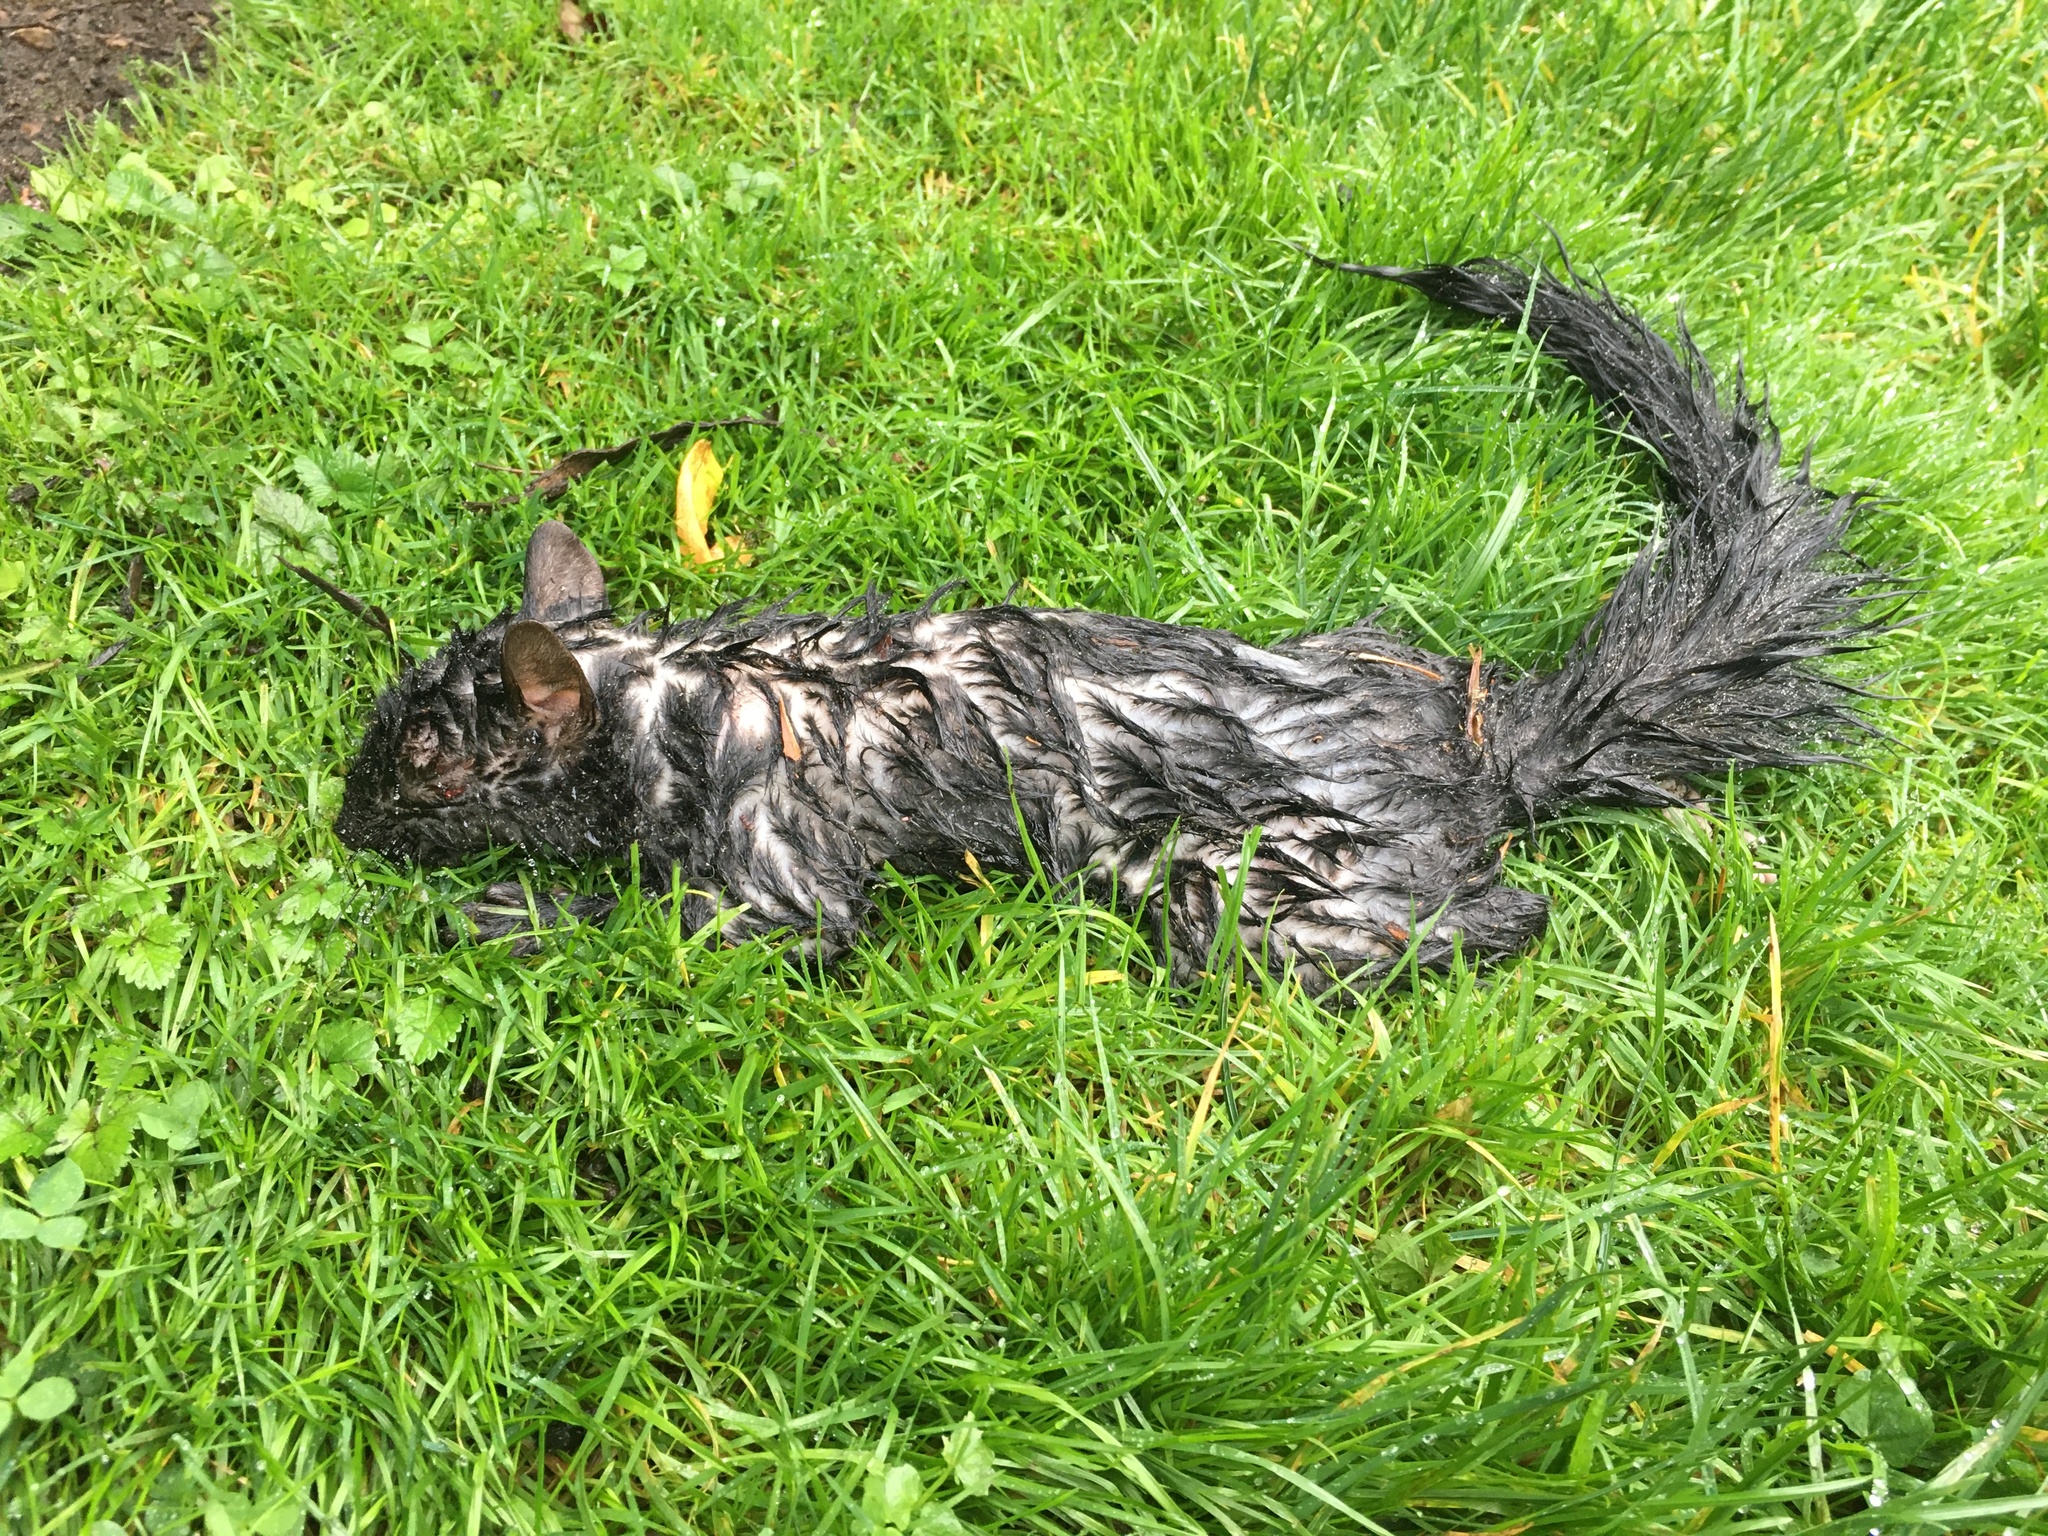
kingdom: Animalia
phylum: Chordata
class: Mammalia
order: Rodentia
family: Sciuridae
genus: Sciurus
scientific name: Sciurus carolinensis
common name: Eastern gray squirrel
